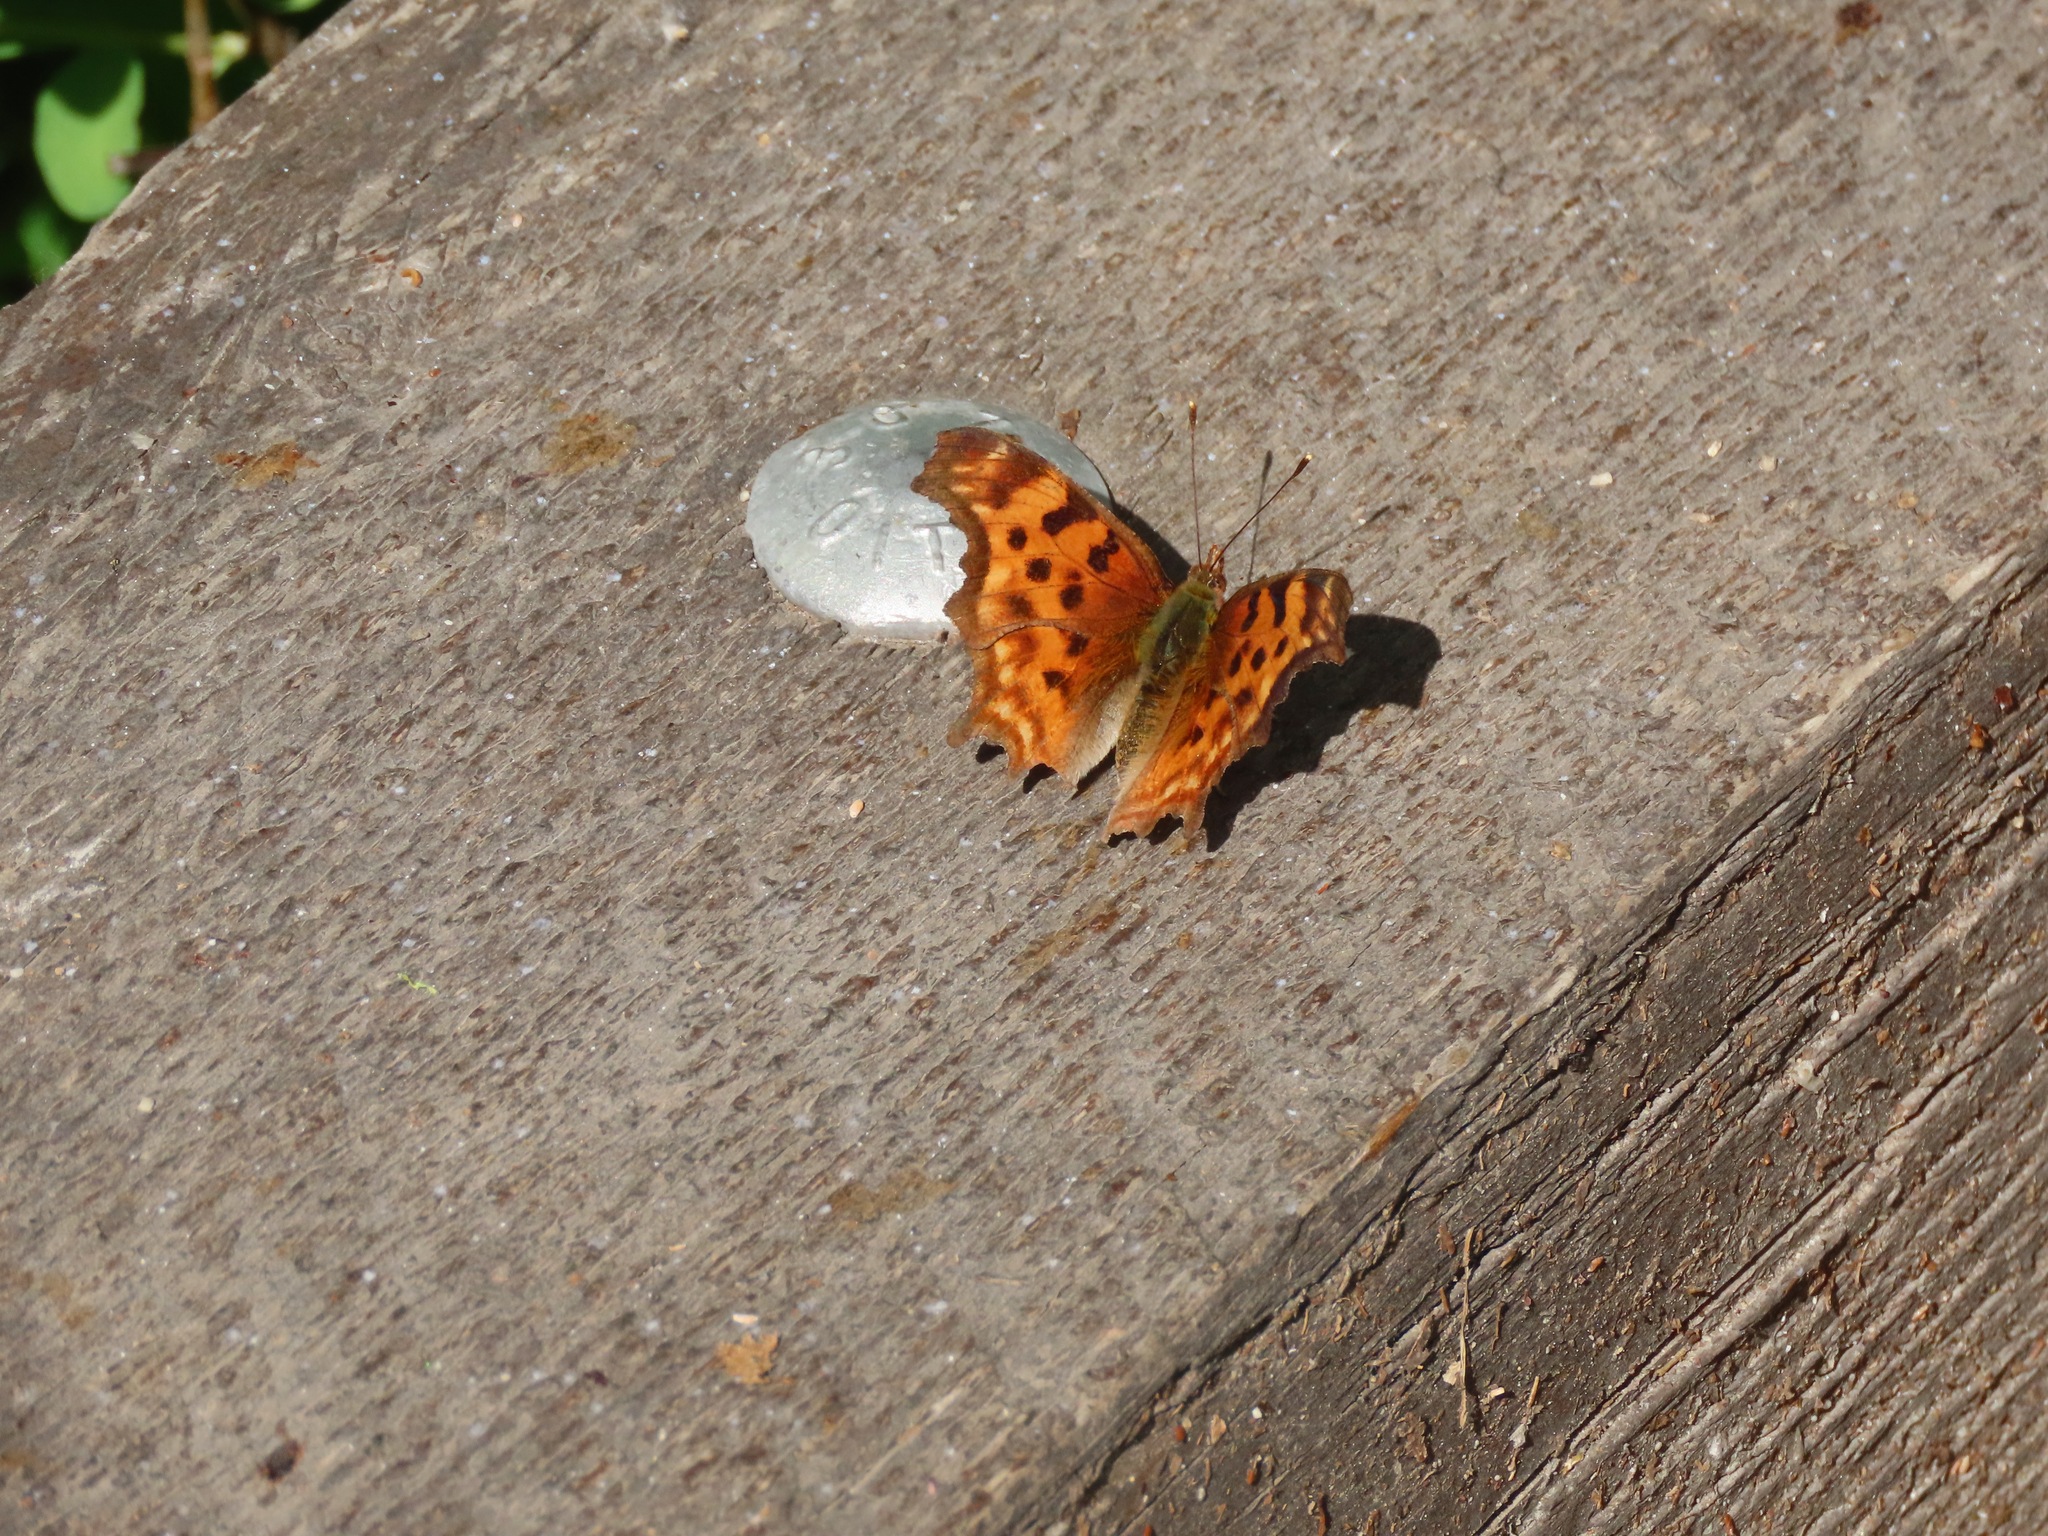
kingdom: Animalia
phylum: Arthropoda
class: Insecta
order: Lepidoptera
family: Nymphalidae
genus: Polygonia
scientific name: Polygonia satyrus
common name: Satyr angle wing
